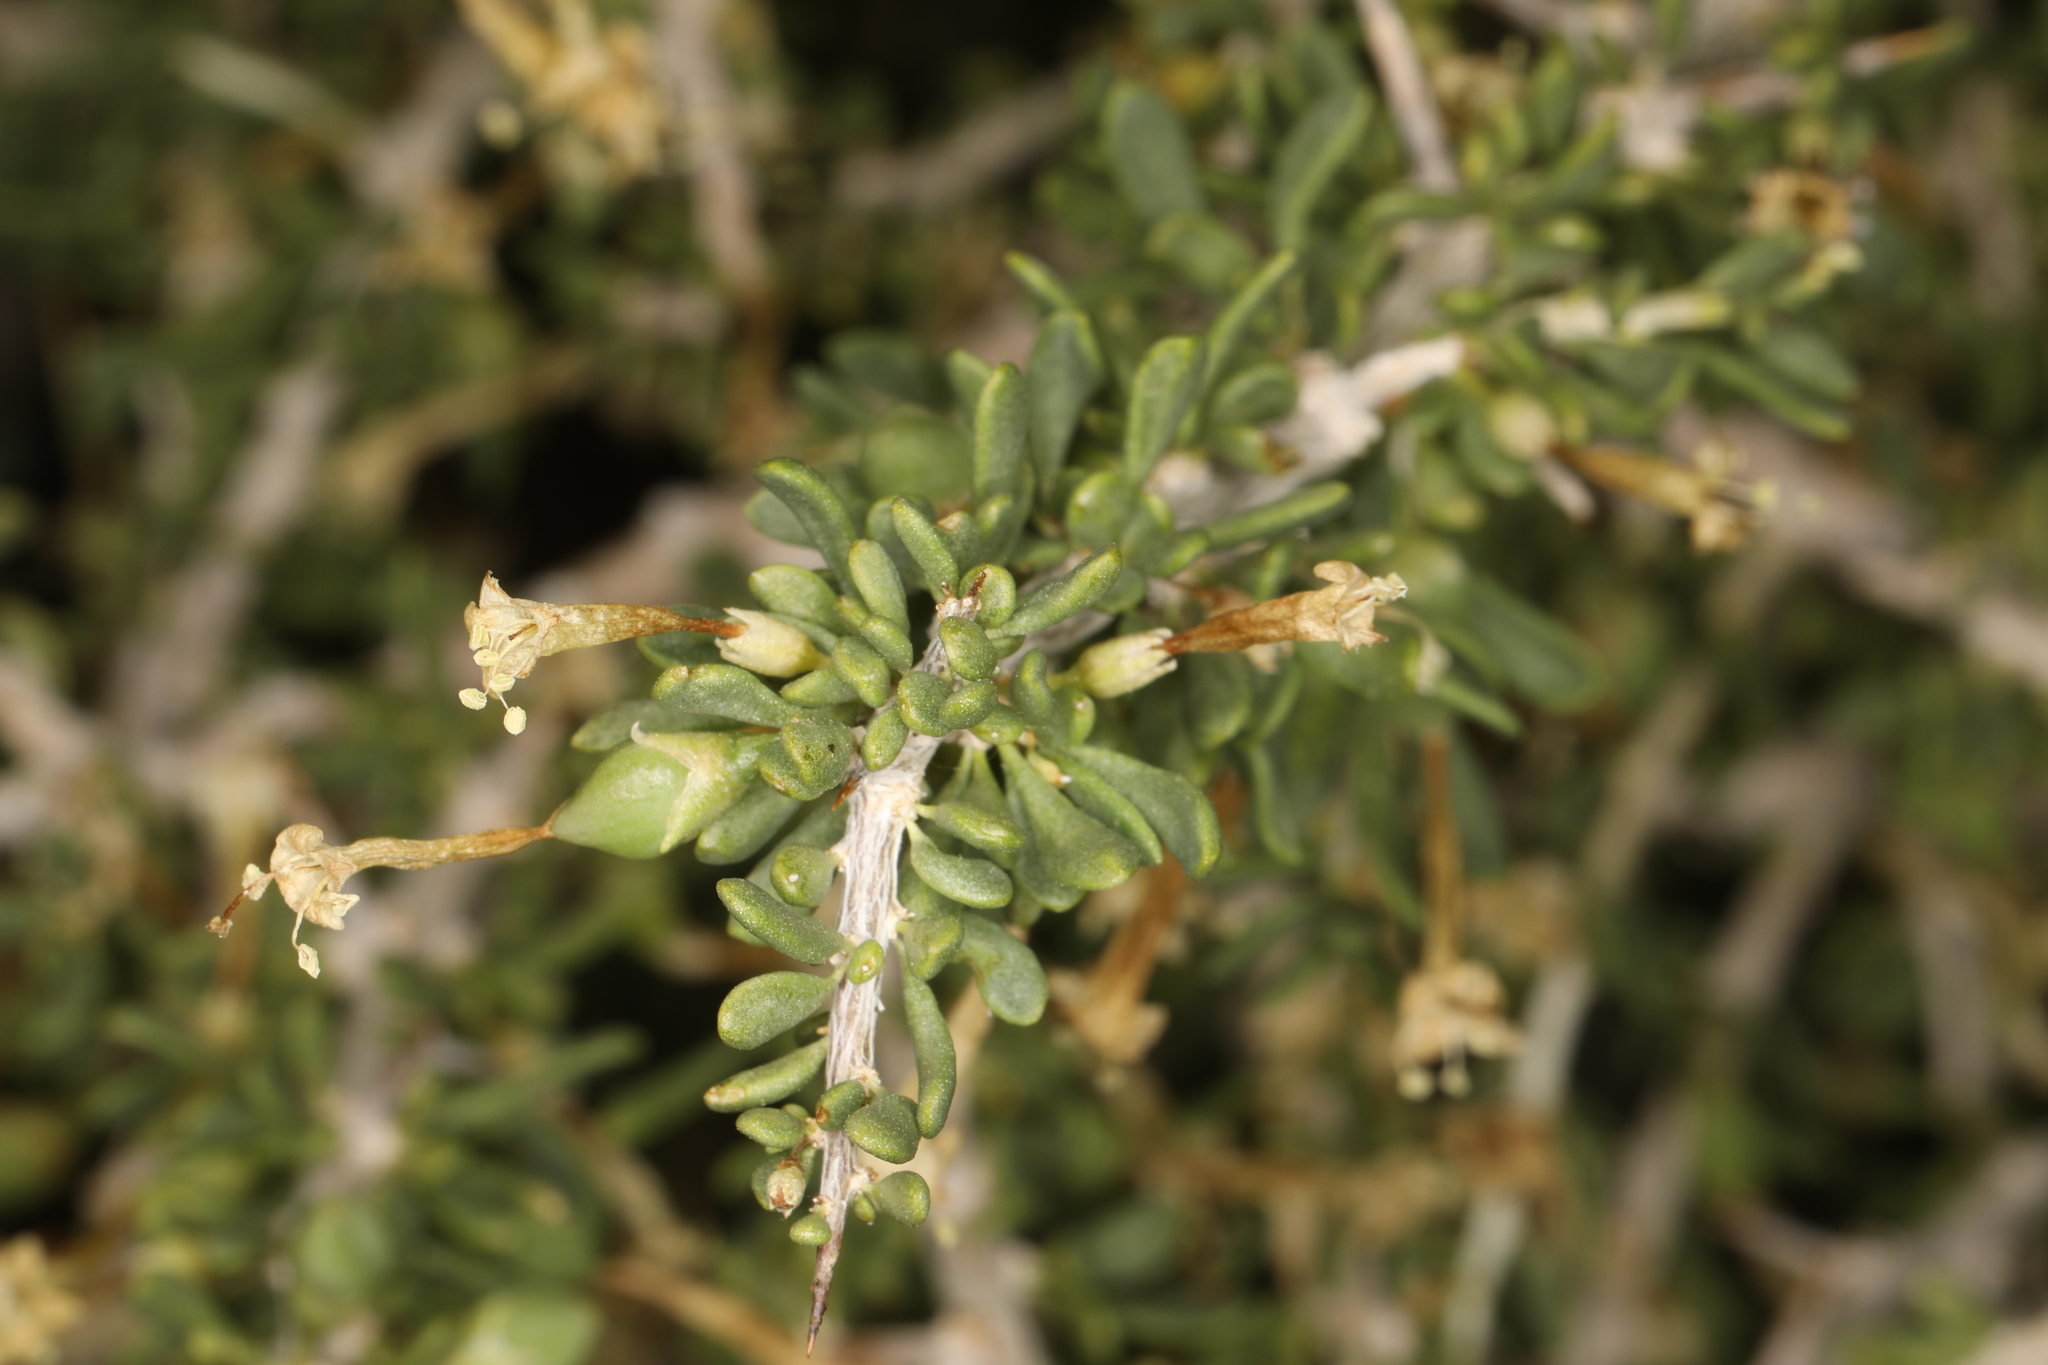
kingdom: Plantae
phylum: Tracheophyta
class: Magnoliopsida
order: Solanales
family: Solanaceae
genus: Lycium
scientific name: Lycium andersonii
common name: Water-jacket
